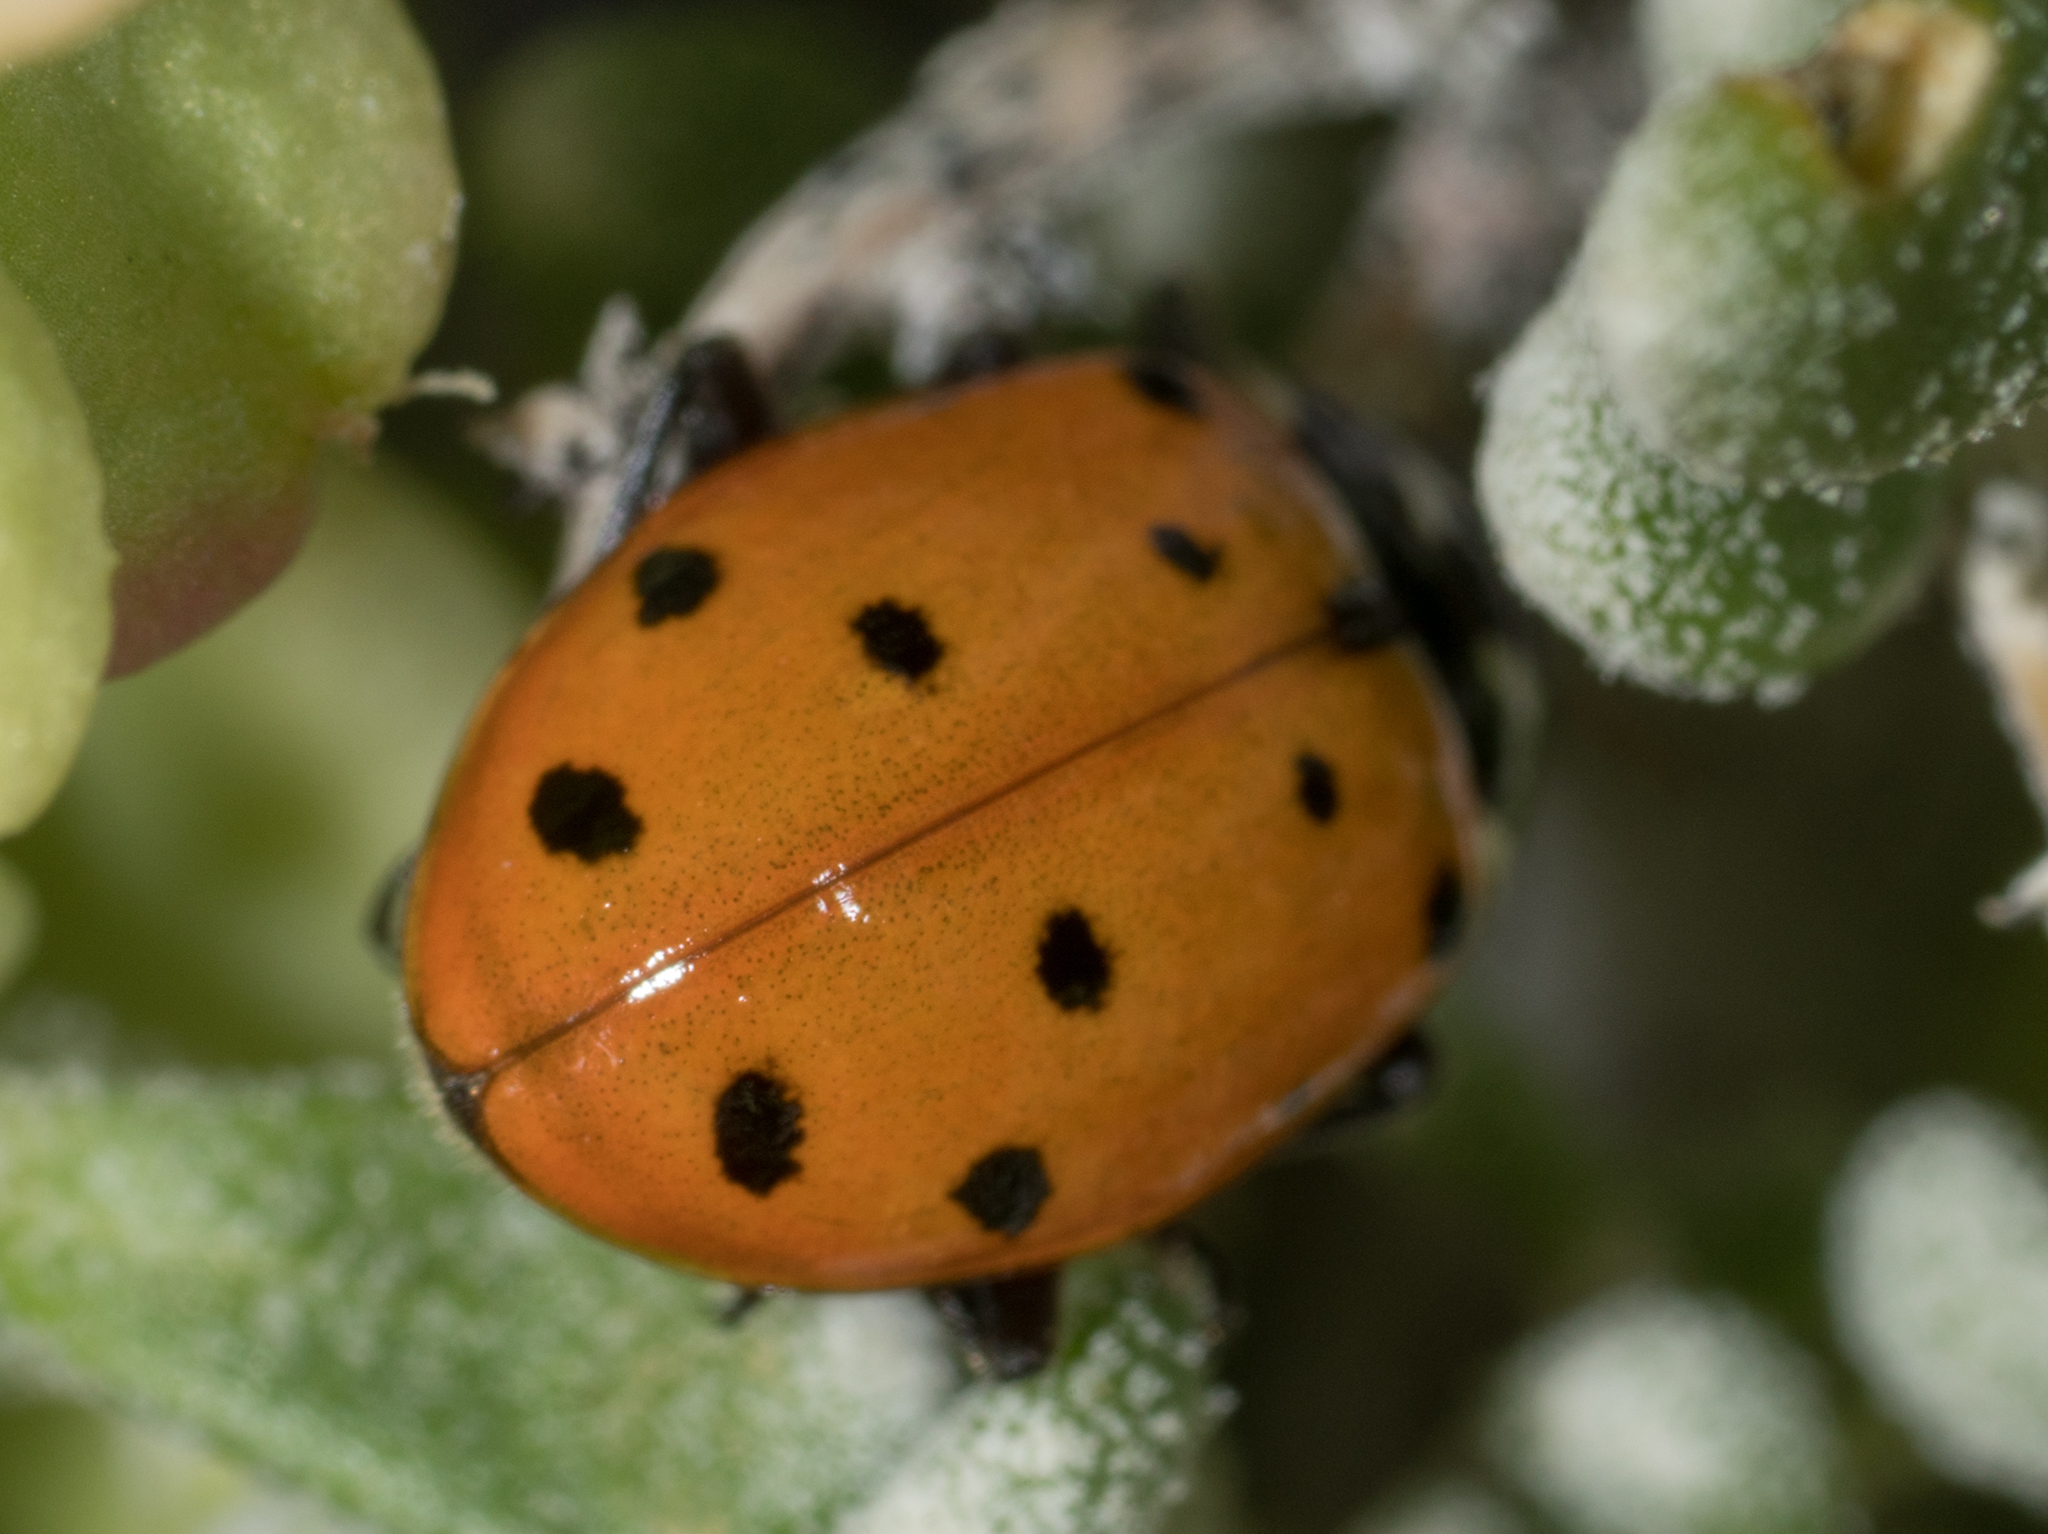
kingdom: Animalia
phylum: Arthropoda
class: Insecta
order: Coleoptera
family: Coccinellidae
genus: Hippodamia
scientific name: Hippodamia convergens
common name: Convergent lady beetle
